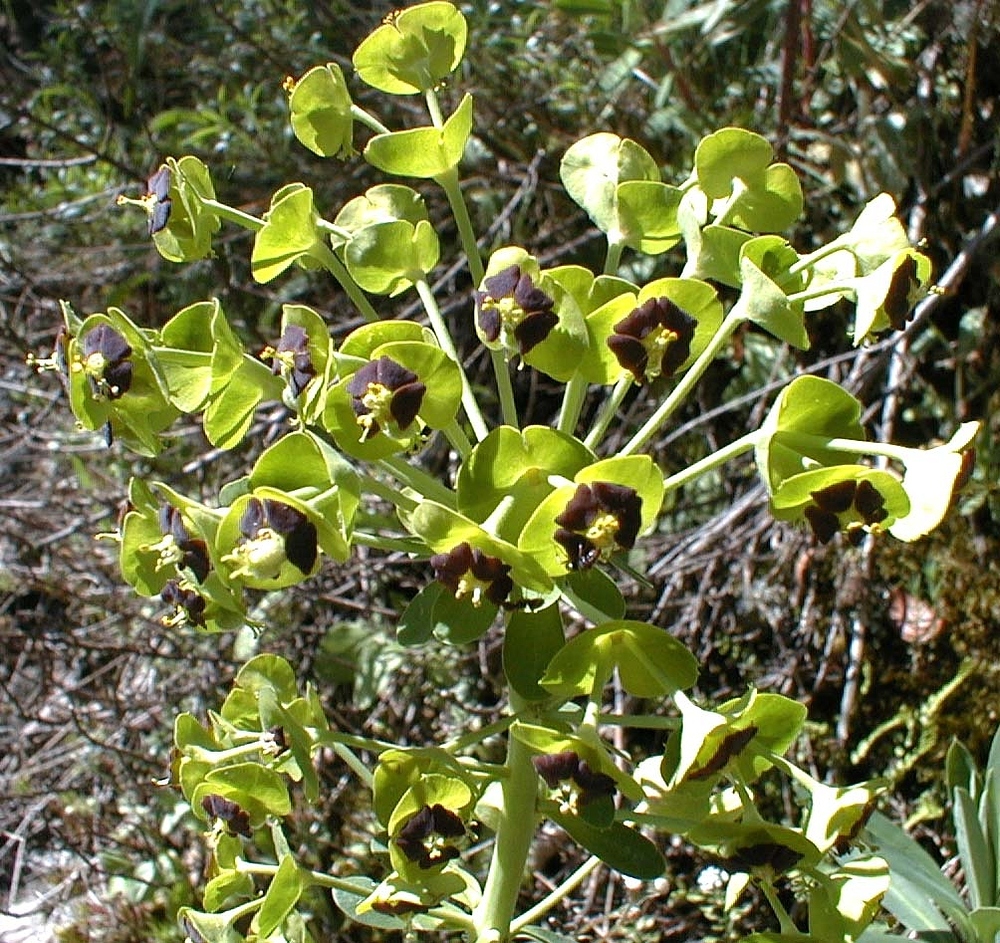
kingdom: Plantae
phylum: Tracheophyta
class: Magnoliopsida
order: Malpighiales
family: Euphorbiaceae
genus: Euphorbia
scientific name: Euphorbia characias
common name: Mediterranean spurge
